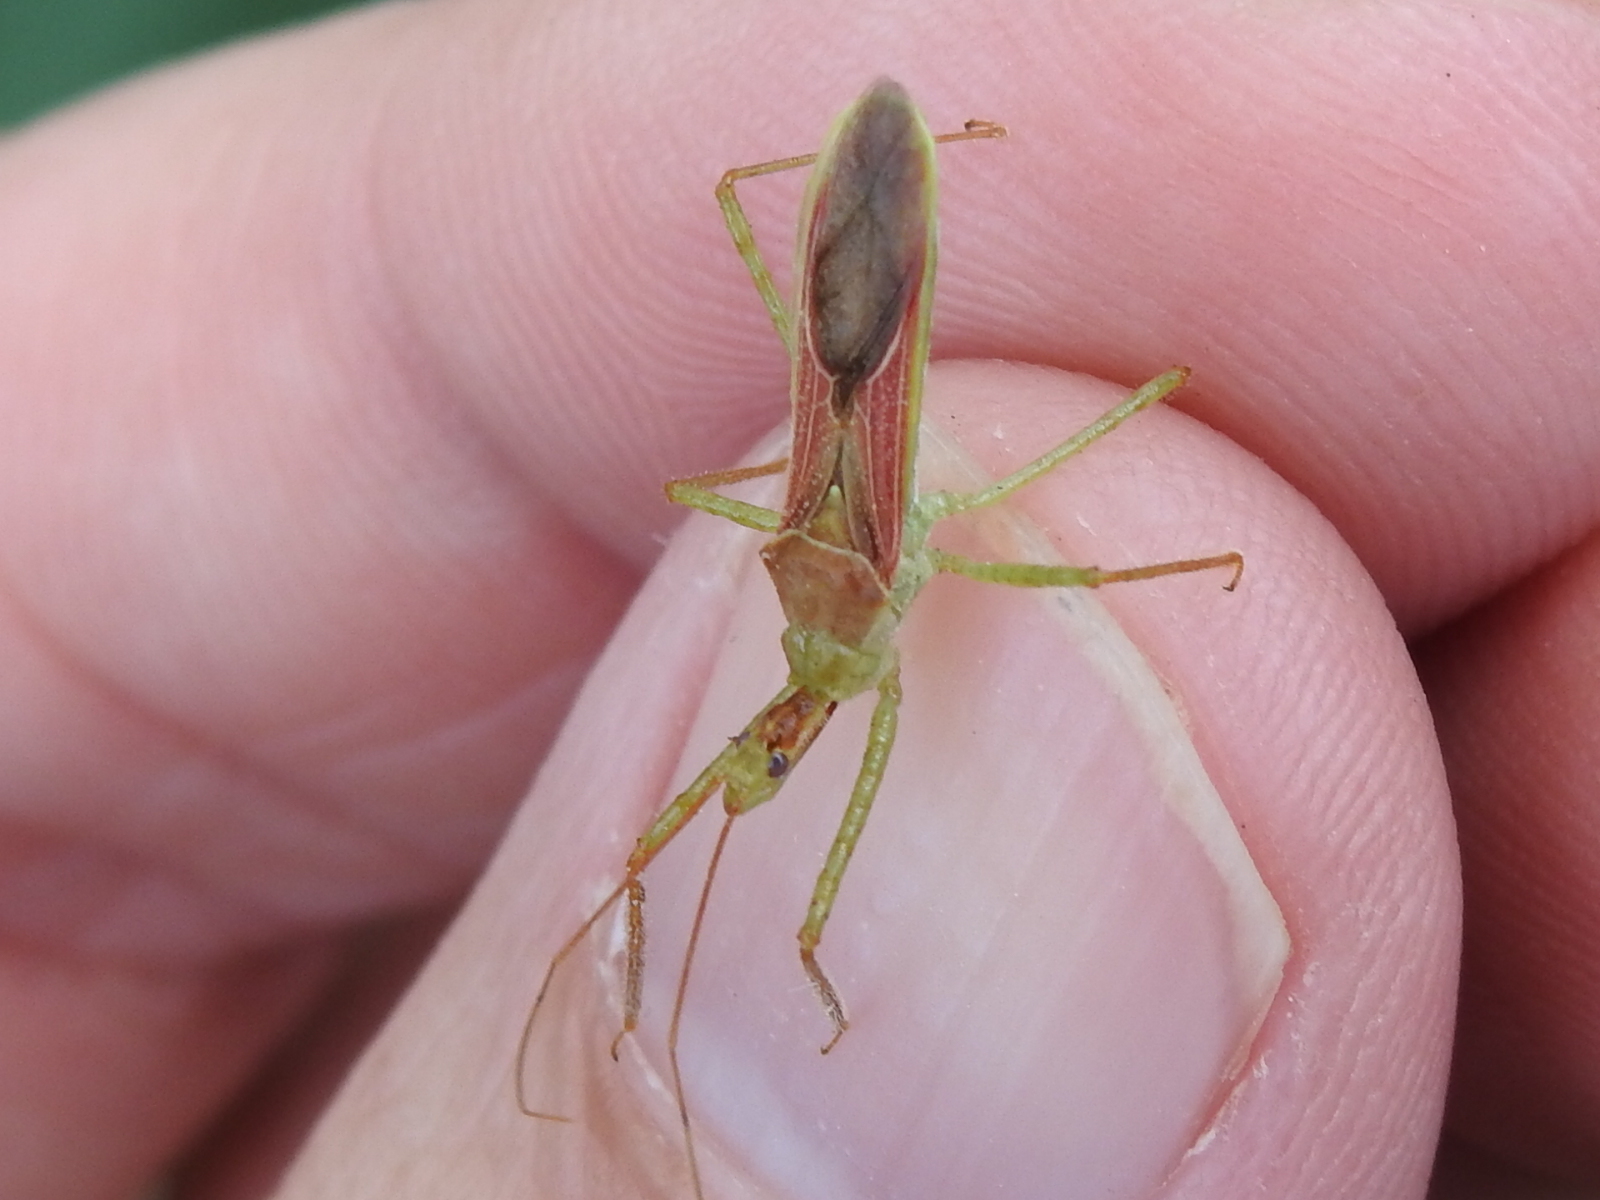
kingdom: Animalia
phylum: Arthropoda
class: Insecta
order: Hemiptera
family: Reduviidae
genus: Zelus
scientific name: Zelus renardii
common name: Assassin bug
